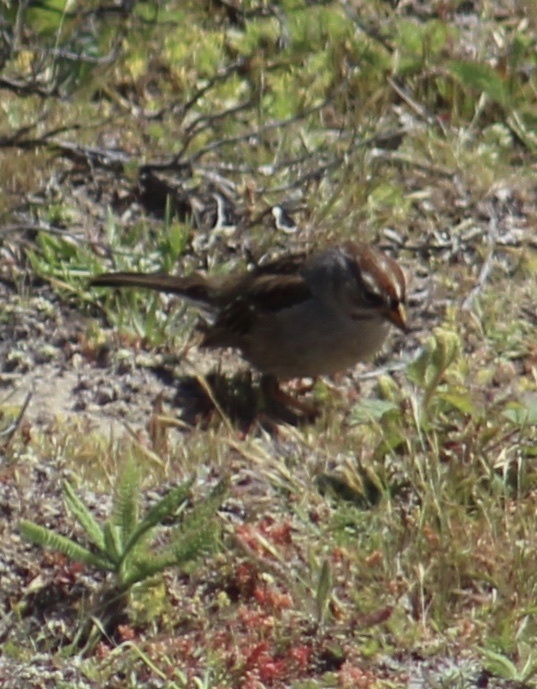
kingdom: Animalia
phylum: Chordata
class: Aves
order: Passeriformes
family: Passerellidae
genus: Zonotrichia
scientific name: Zonotrichia leucophrys
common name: White-crowned sparrow
